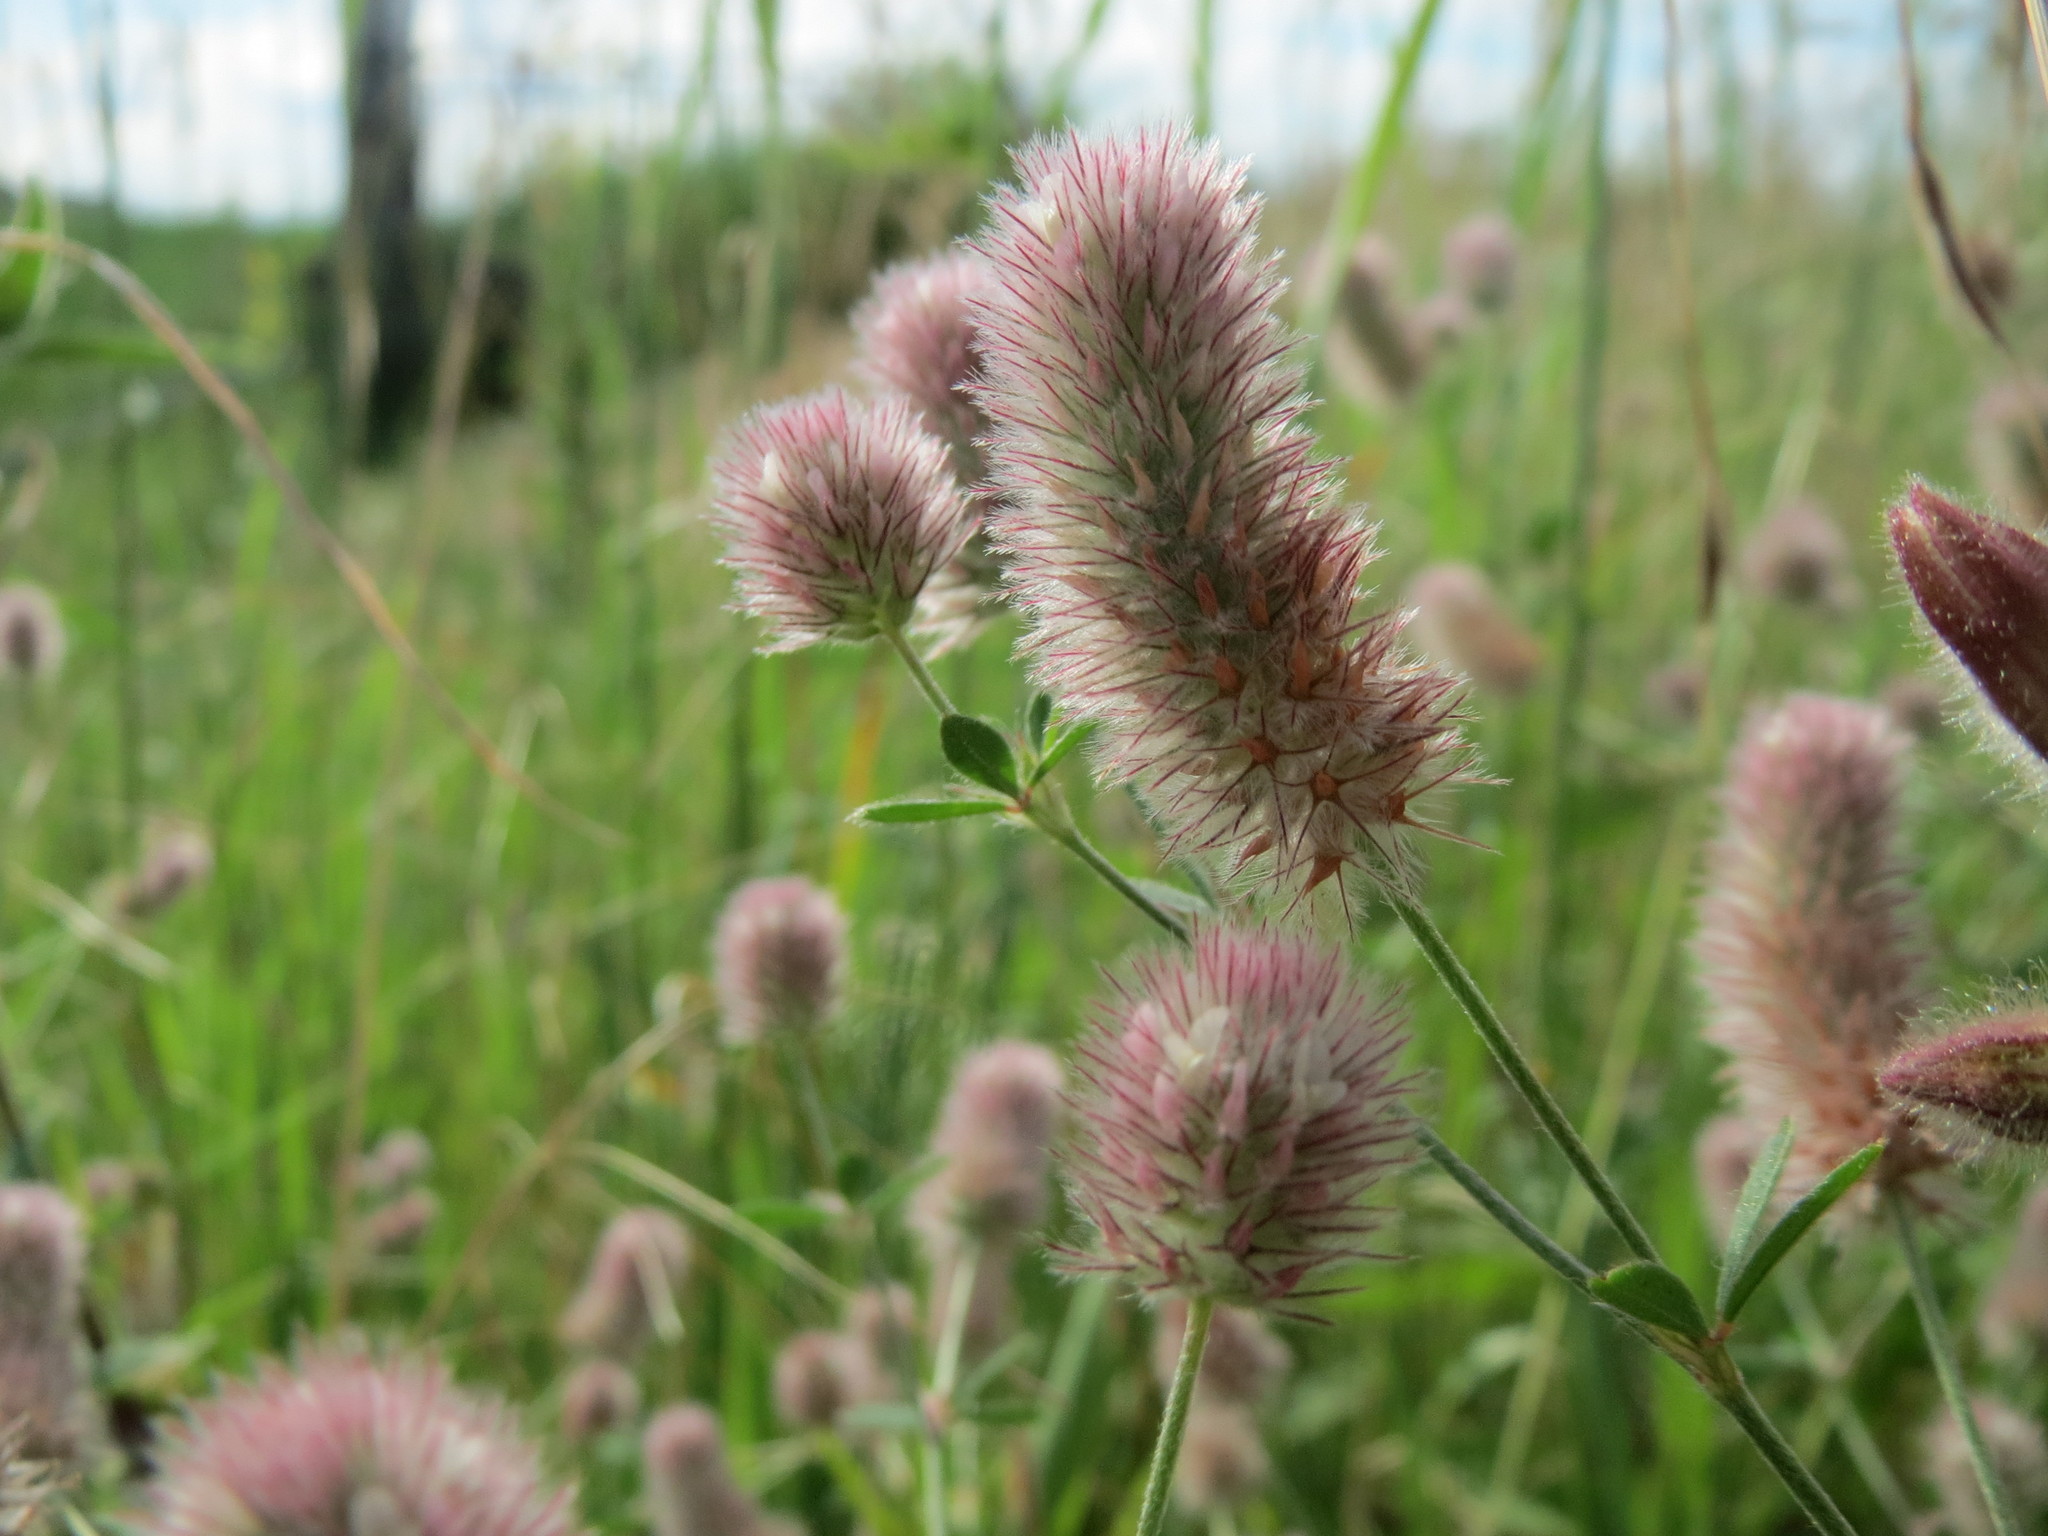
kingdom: Plantae
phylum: Tracheophyta
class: Magnoliopsida
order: Fabales
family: Fabaceae
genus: Trifolium
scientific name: Trifolium arvense
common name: Hare's-foot clover
